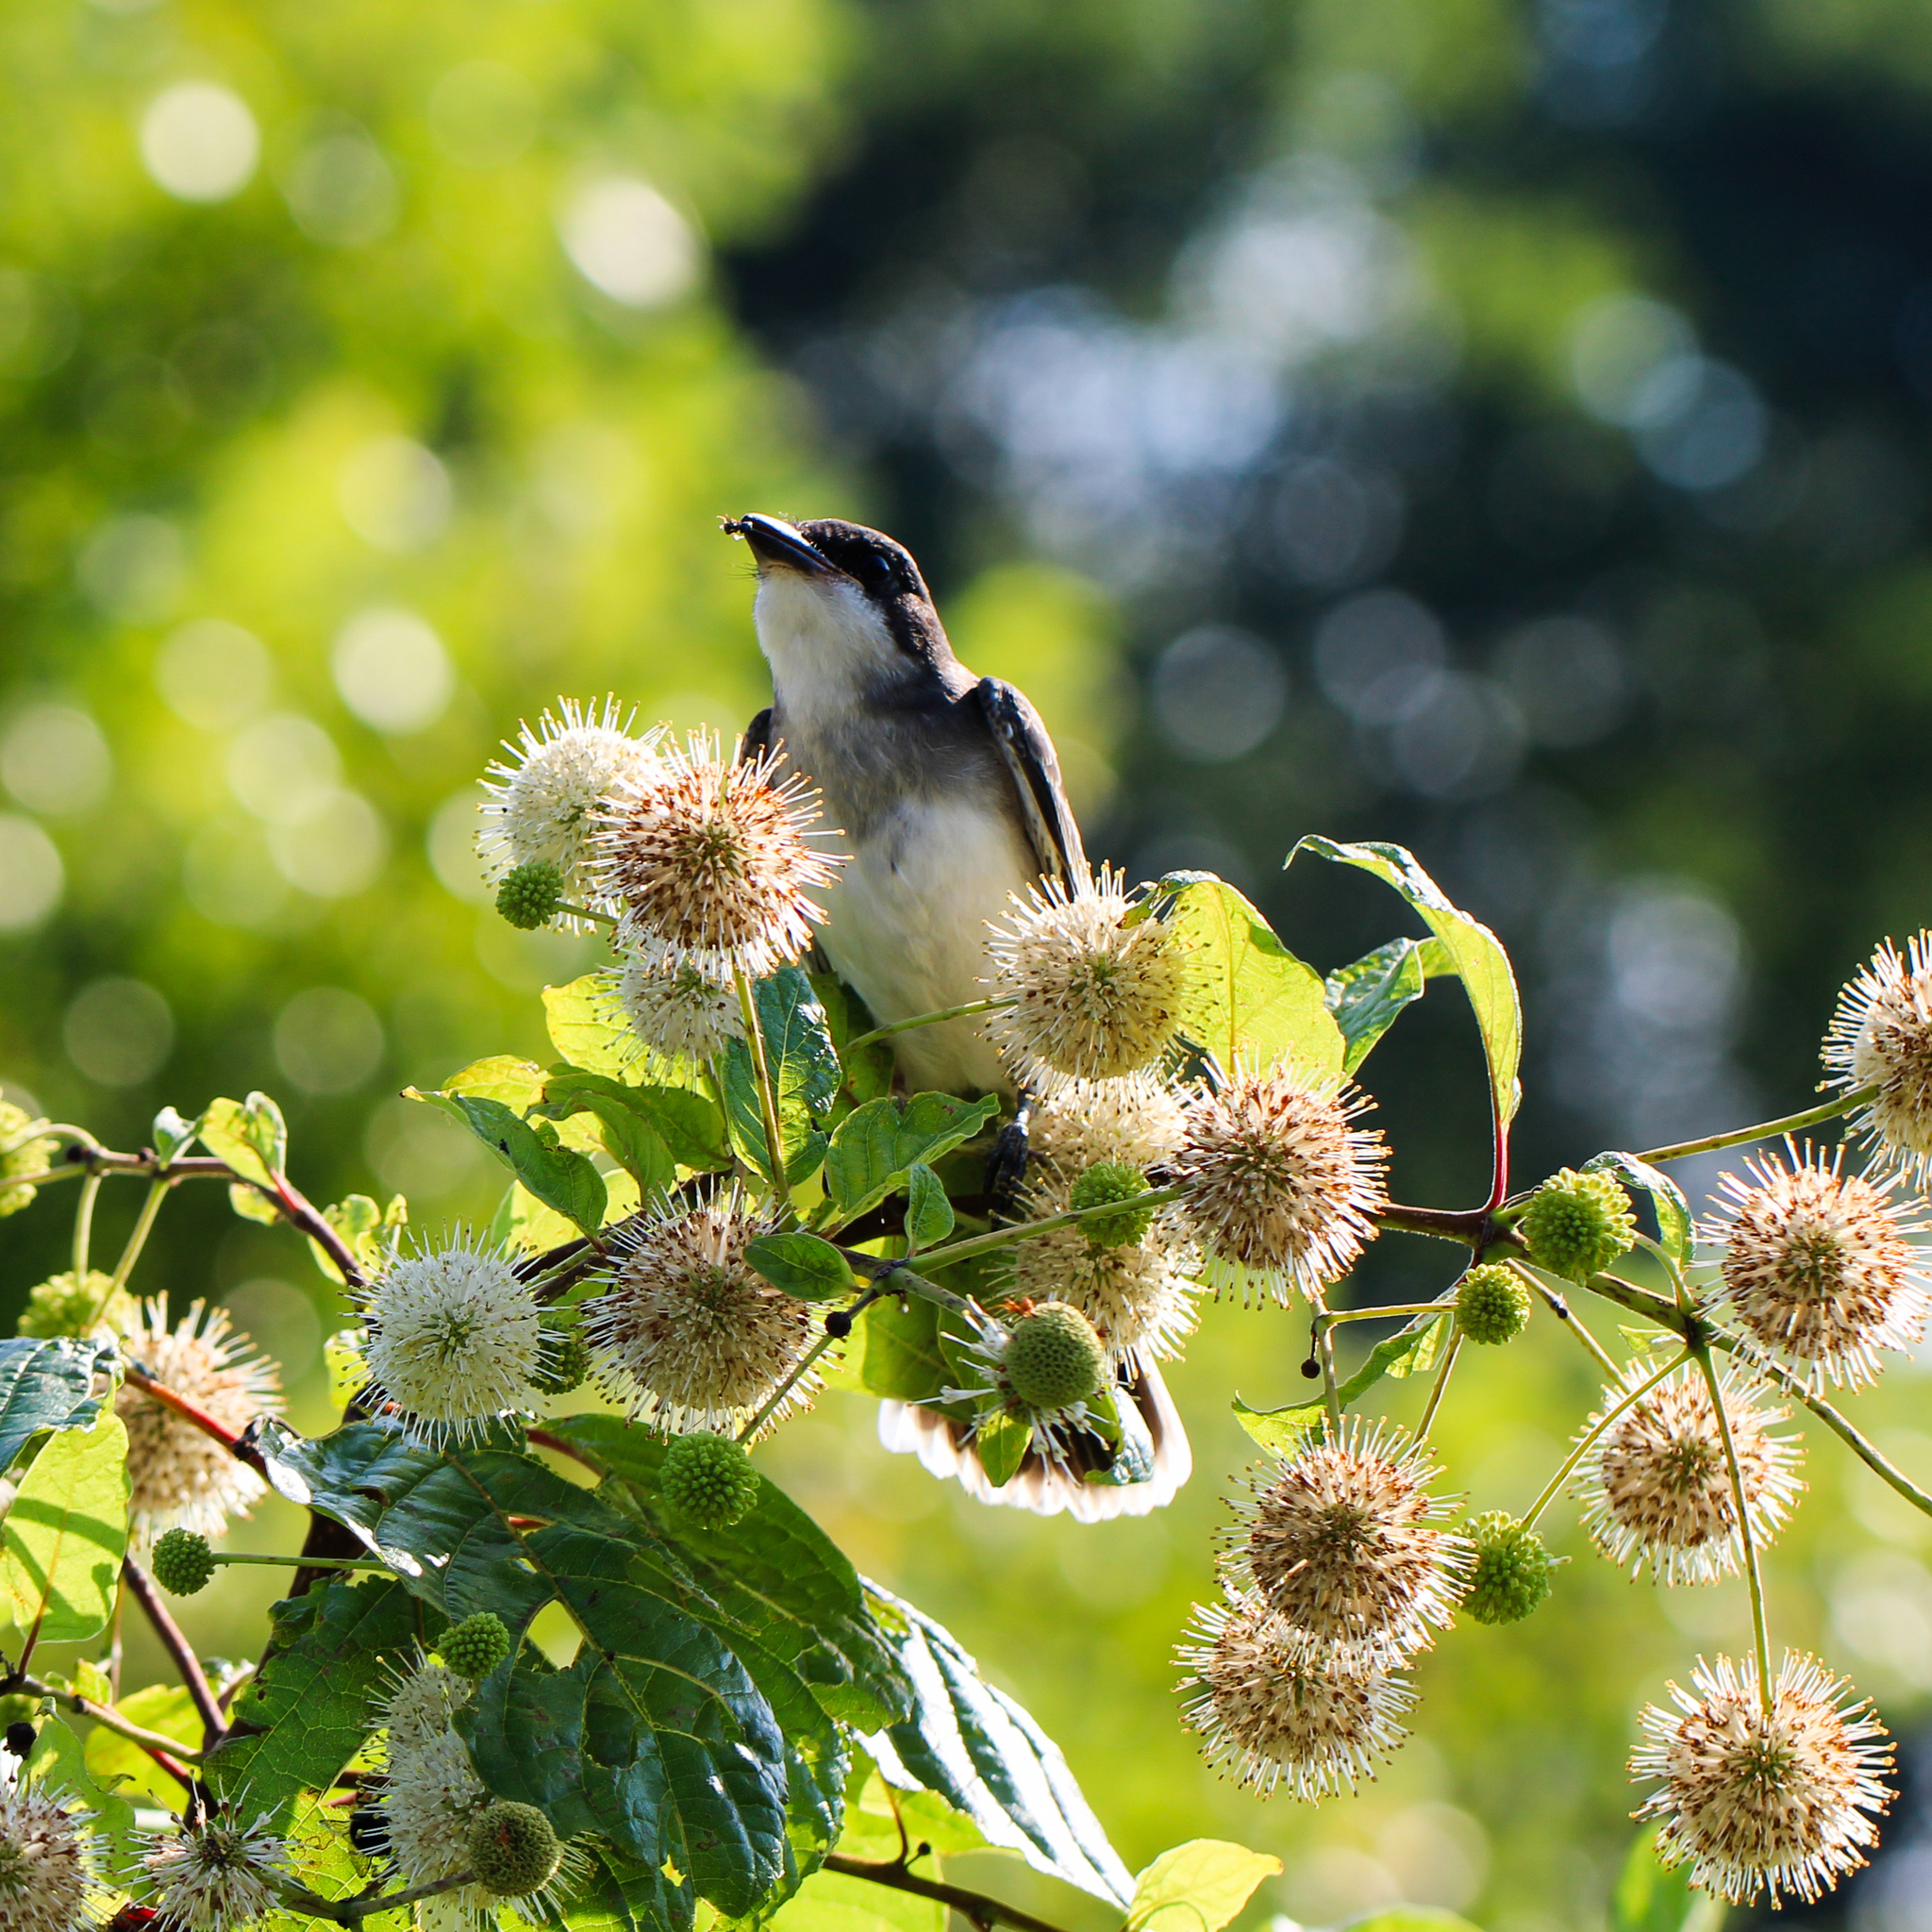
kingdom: Animalia
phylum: Chordata
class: Aves
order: Passeriformes
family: Tyrannidae
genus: Tyrannus
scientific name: Tyrannus tyrannus
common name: Eastern kingbird
